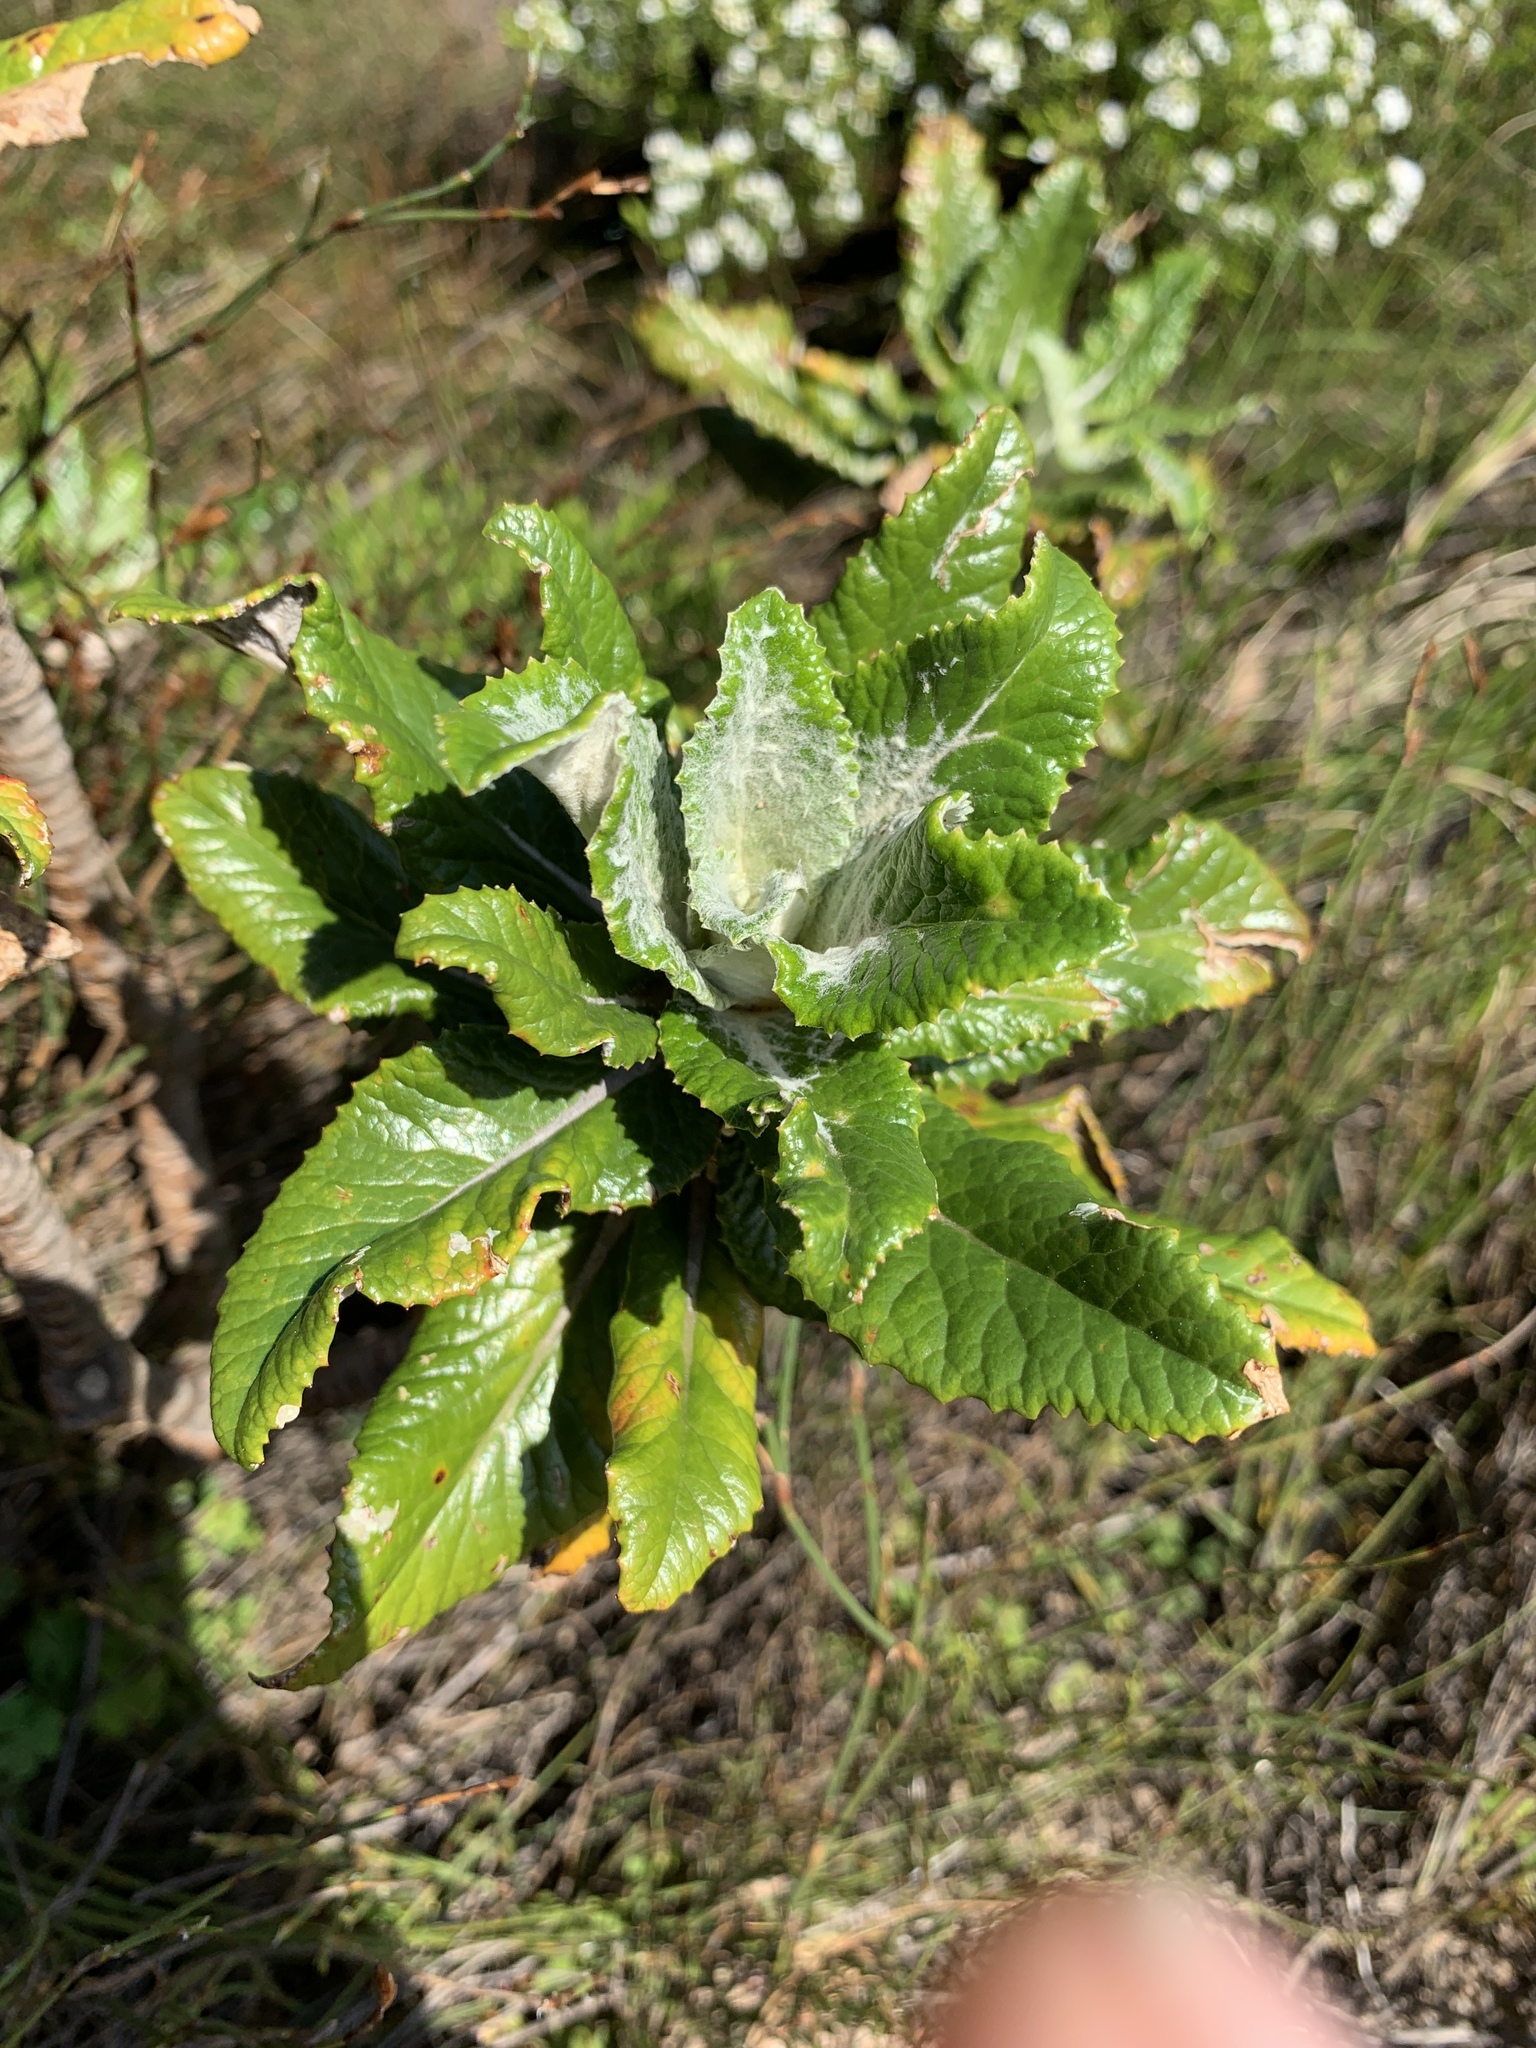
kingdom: Plantae
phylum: Tracheophyta
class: Magnoliopsida
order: Apiales
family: Apiaceae
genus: Hermas
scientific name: Hermas villosa
